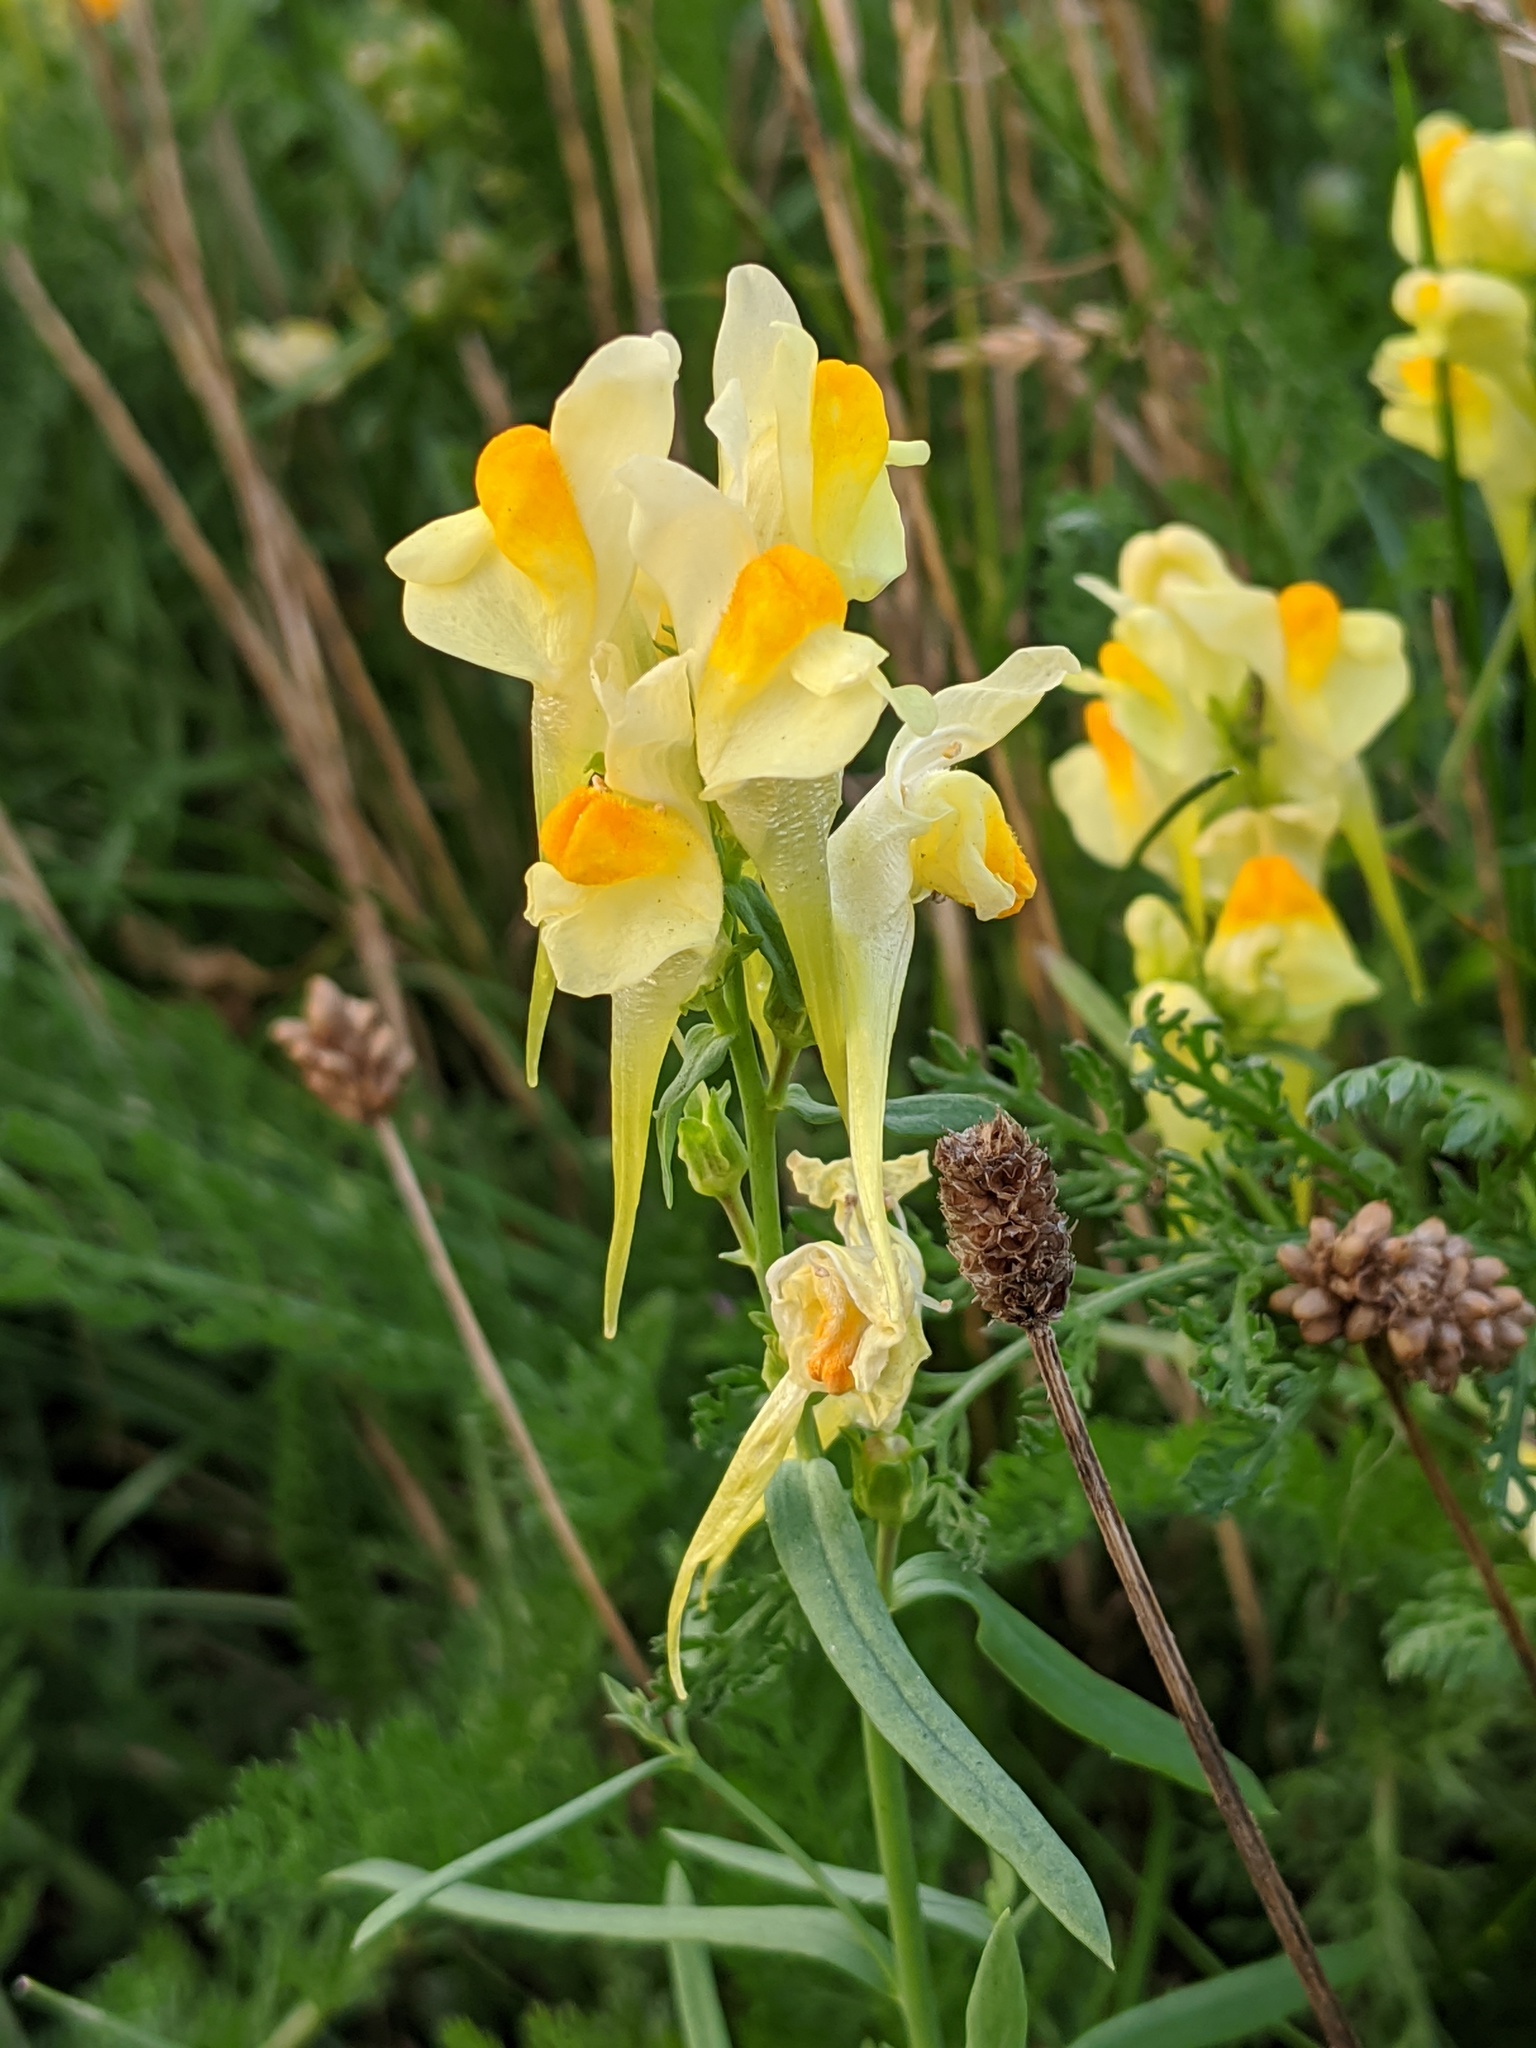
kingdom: Plantae
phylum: Tracheophyta
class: Magnoliopsida
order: Lamiales
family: Plantaginaceae
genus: Linaria
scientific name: Linaria vulgaris
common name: Butter and eggs
